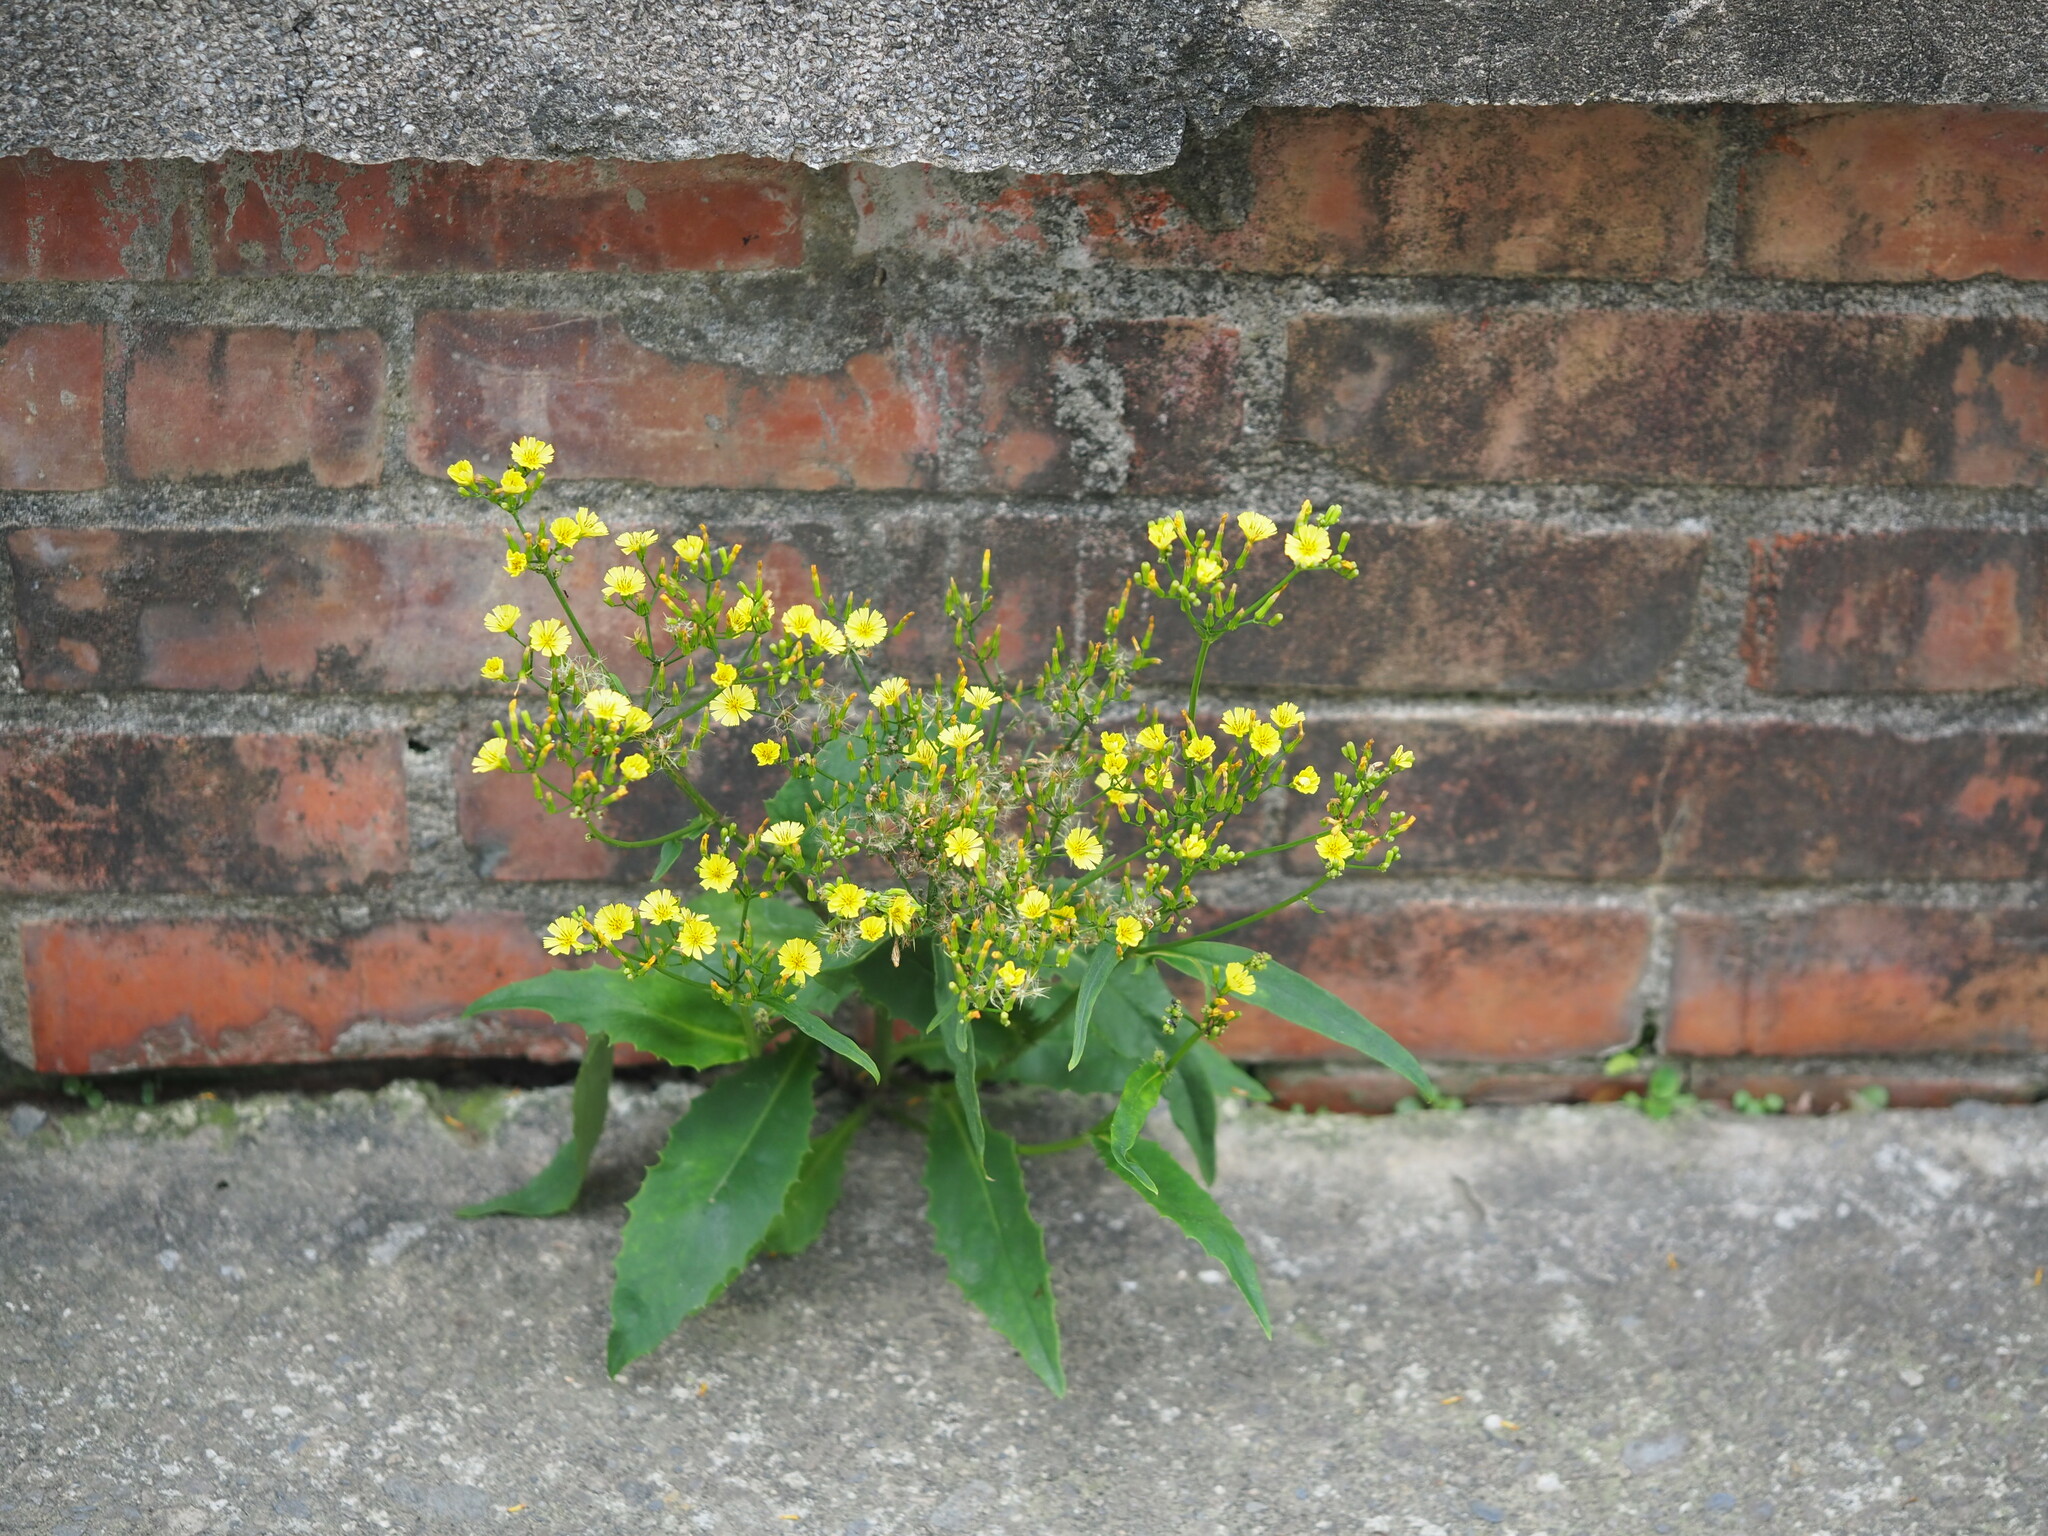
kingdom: Plantae
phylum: Tracheophyta
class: Magnoliopsida
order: Asterales
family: Asteraceae
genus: Ixeridium
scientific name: Ixeridium laevigatum
